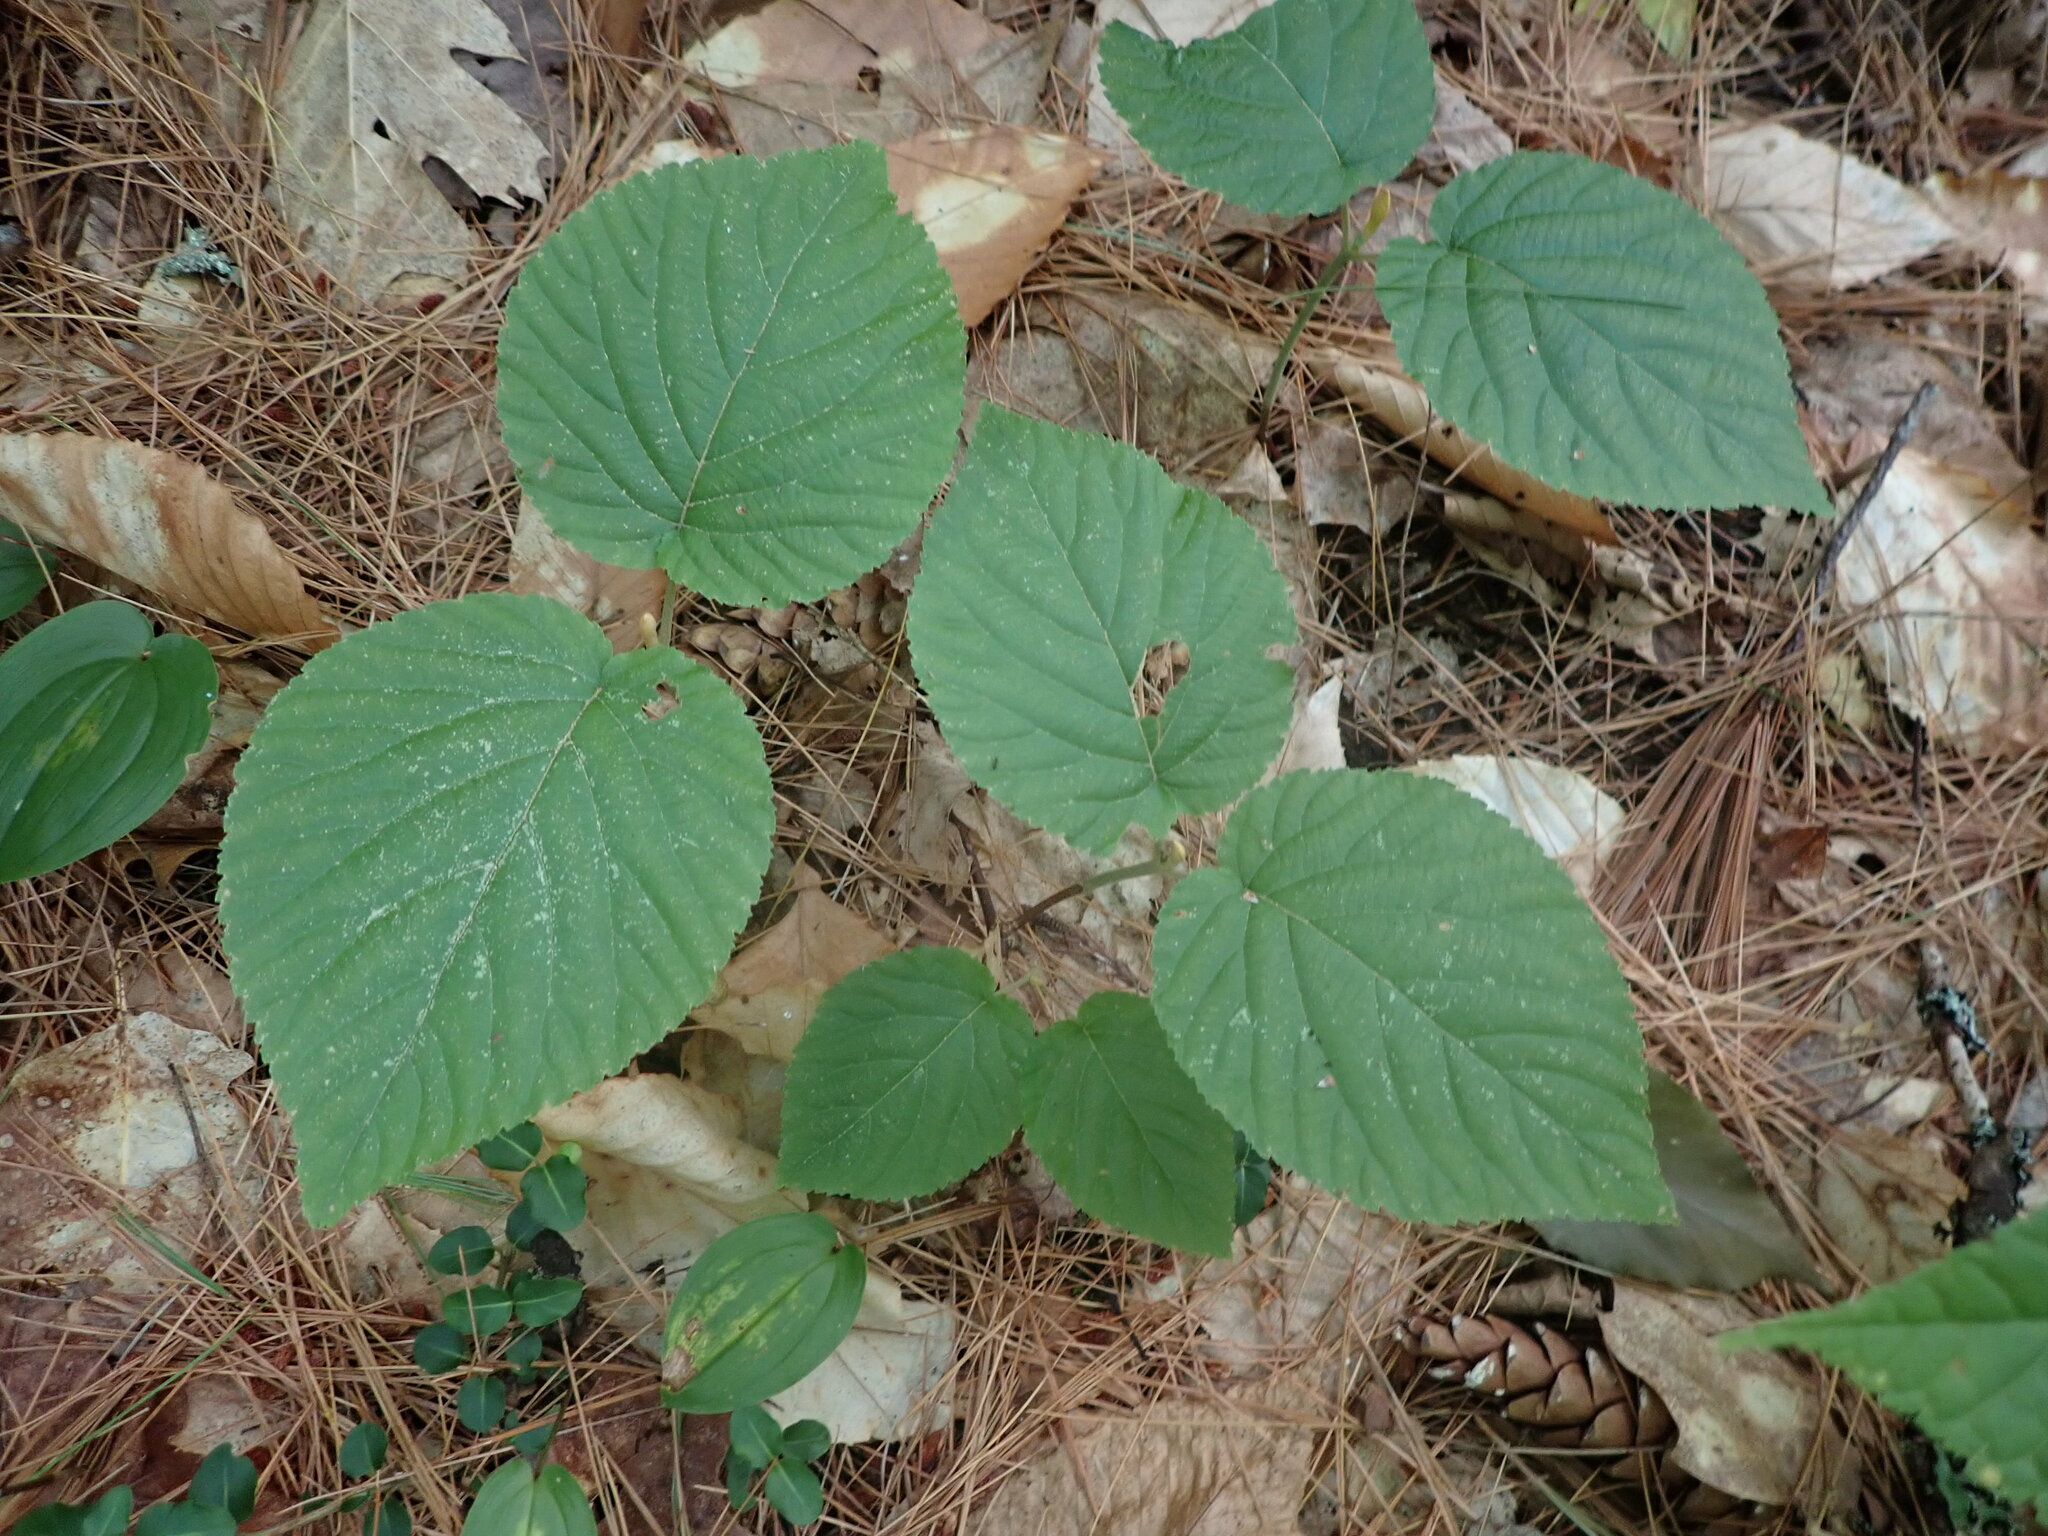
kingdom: Plantae
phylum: Tracheophyta
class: Magnoliopsida
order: Dipsacales
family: Viburnaceae
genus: Viburnum
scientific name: Viburnum lantanoides
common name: Hobblebush
